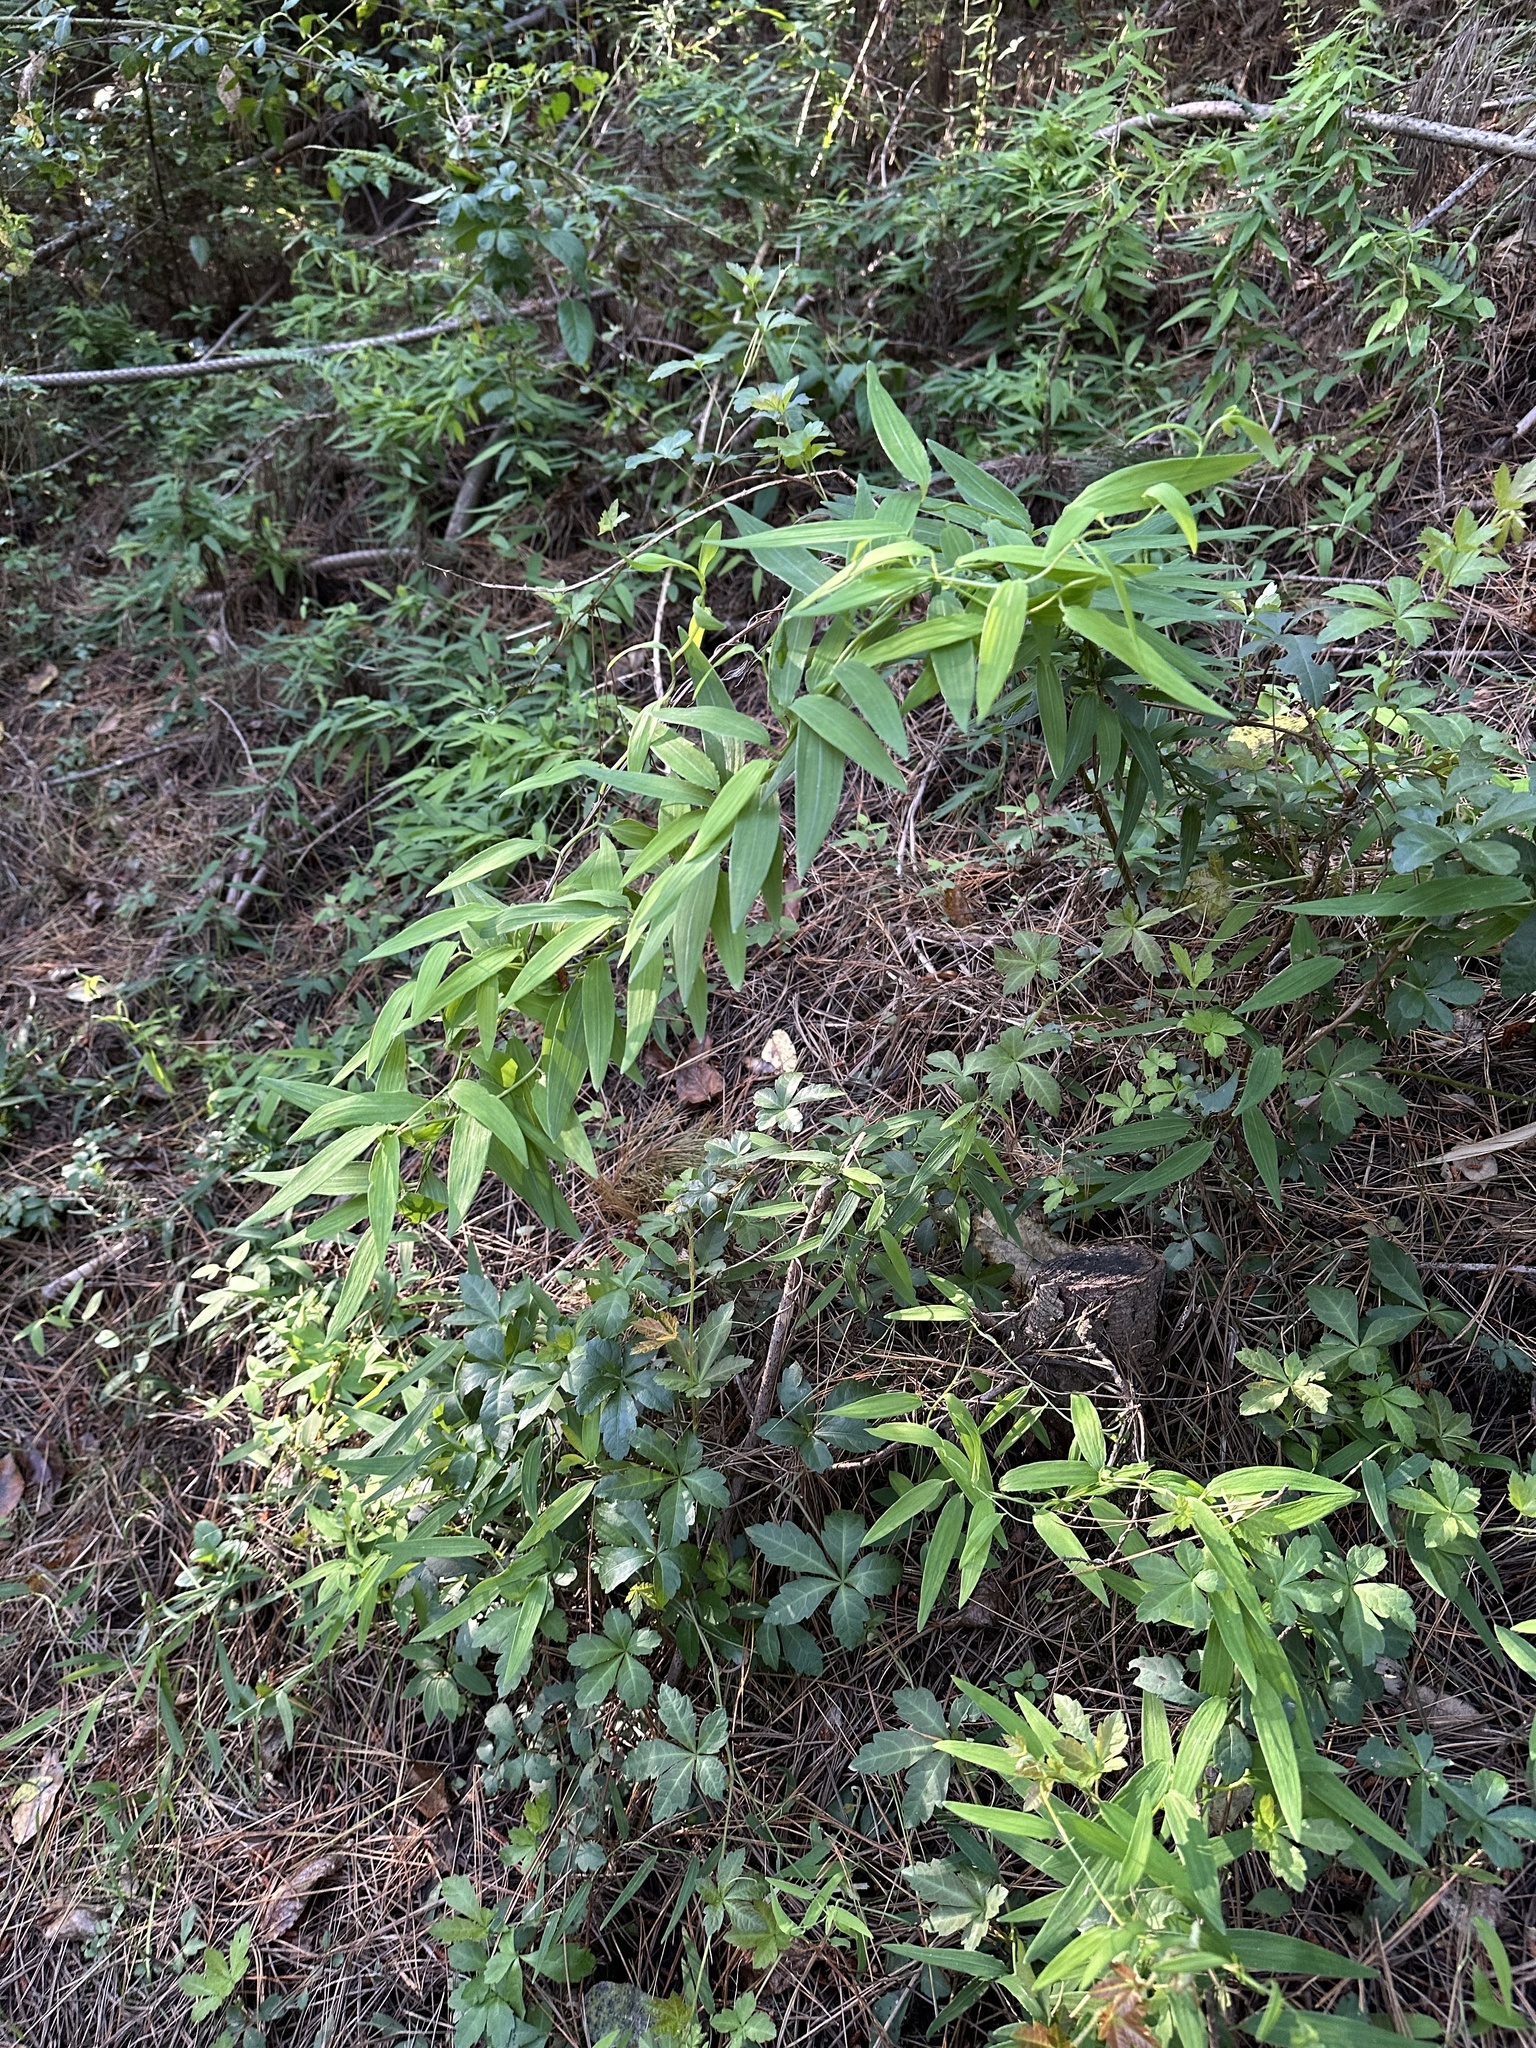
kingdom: Plantae
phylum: Tracheophyta
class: Liliopsida
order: Liliales
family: Alstroemeriaceae
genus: Bomarea
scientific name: Bomarea salsilla
